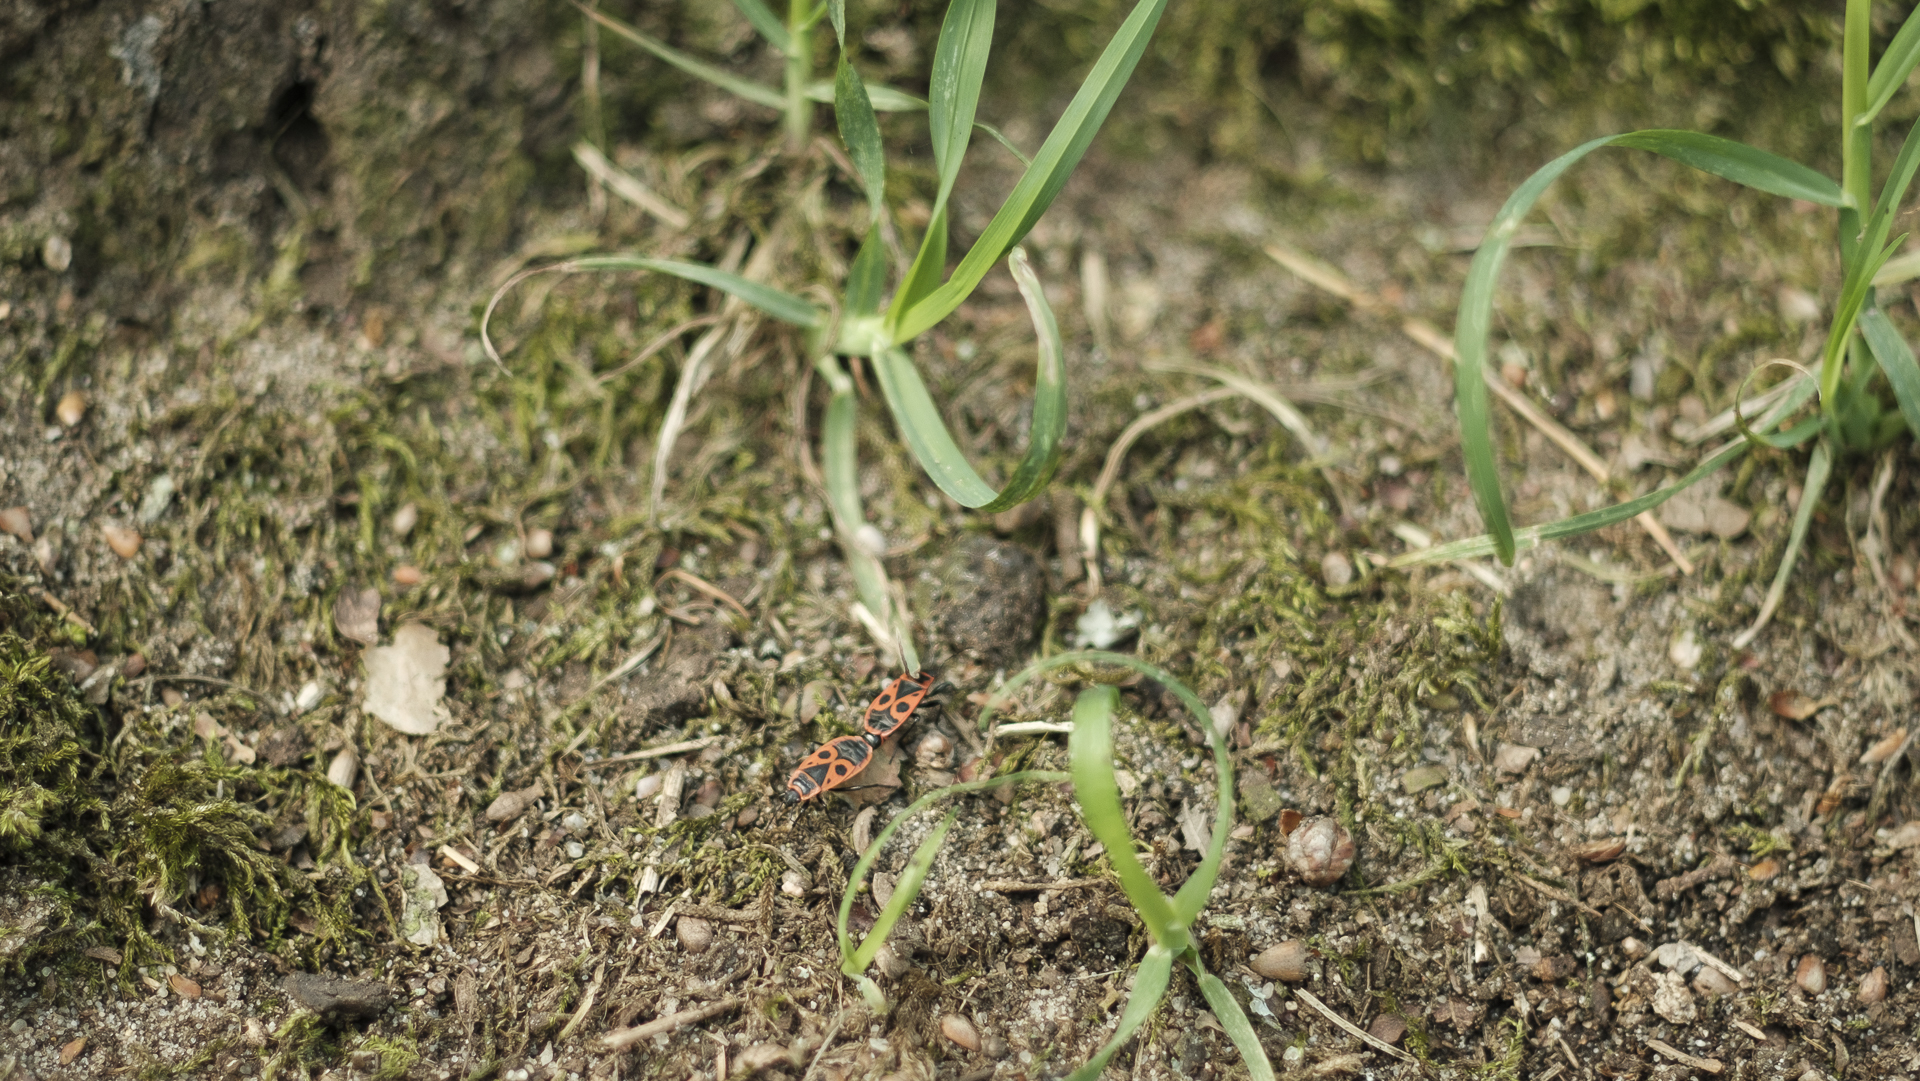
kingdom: Animalia
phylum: Arthropoda
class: Insecta
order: Hemiptera
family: Pyrrhocoridae
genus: Pyrrhocoris
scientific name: Pyrrhocoris apterus
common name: Firebug
